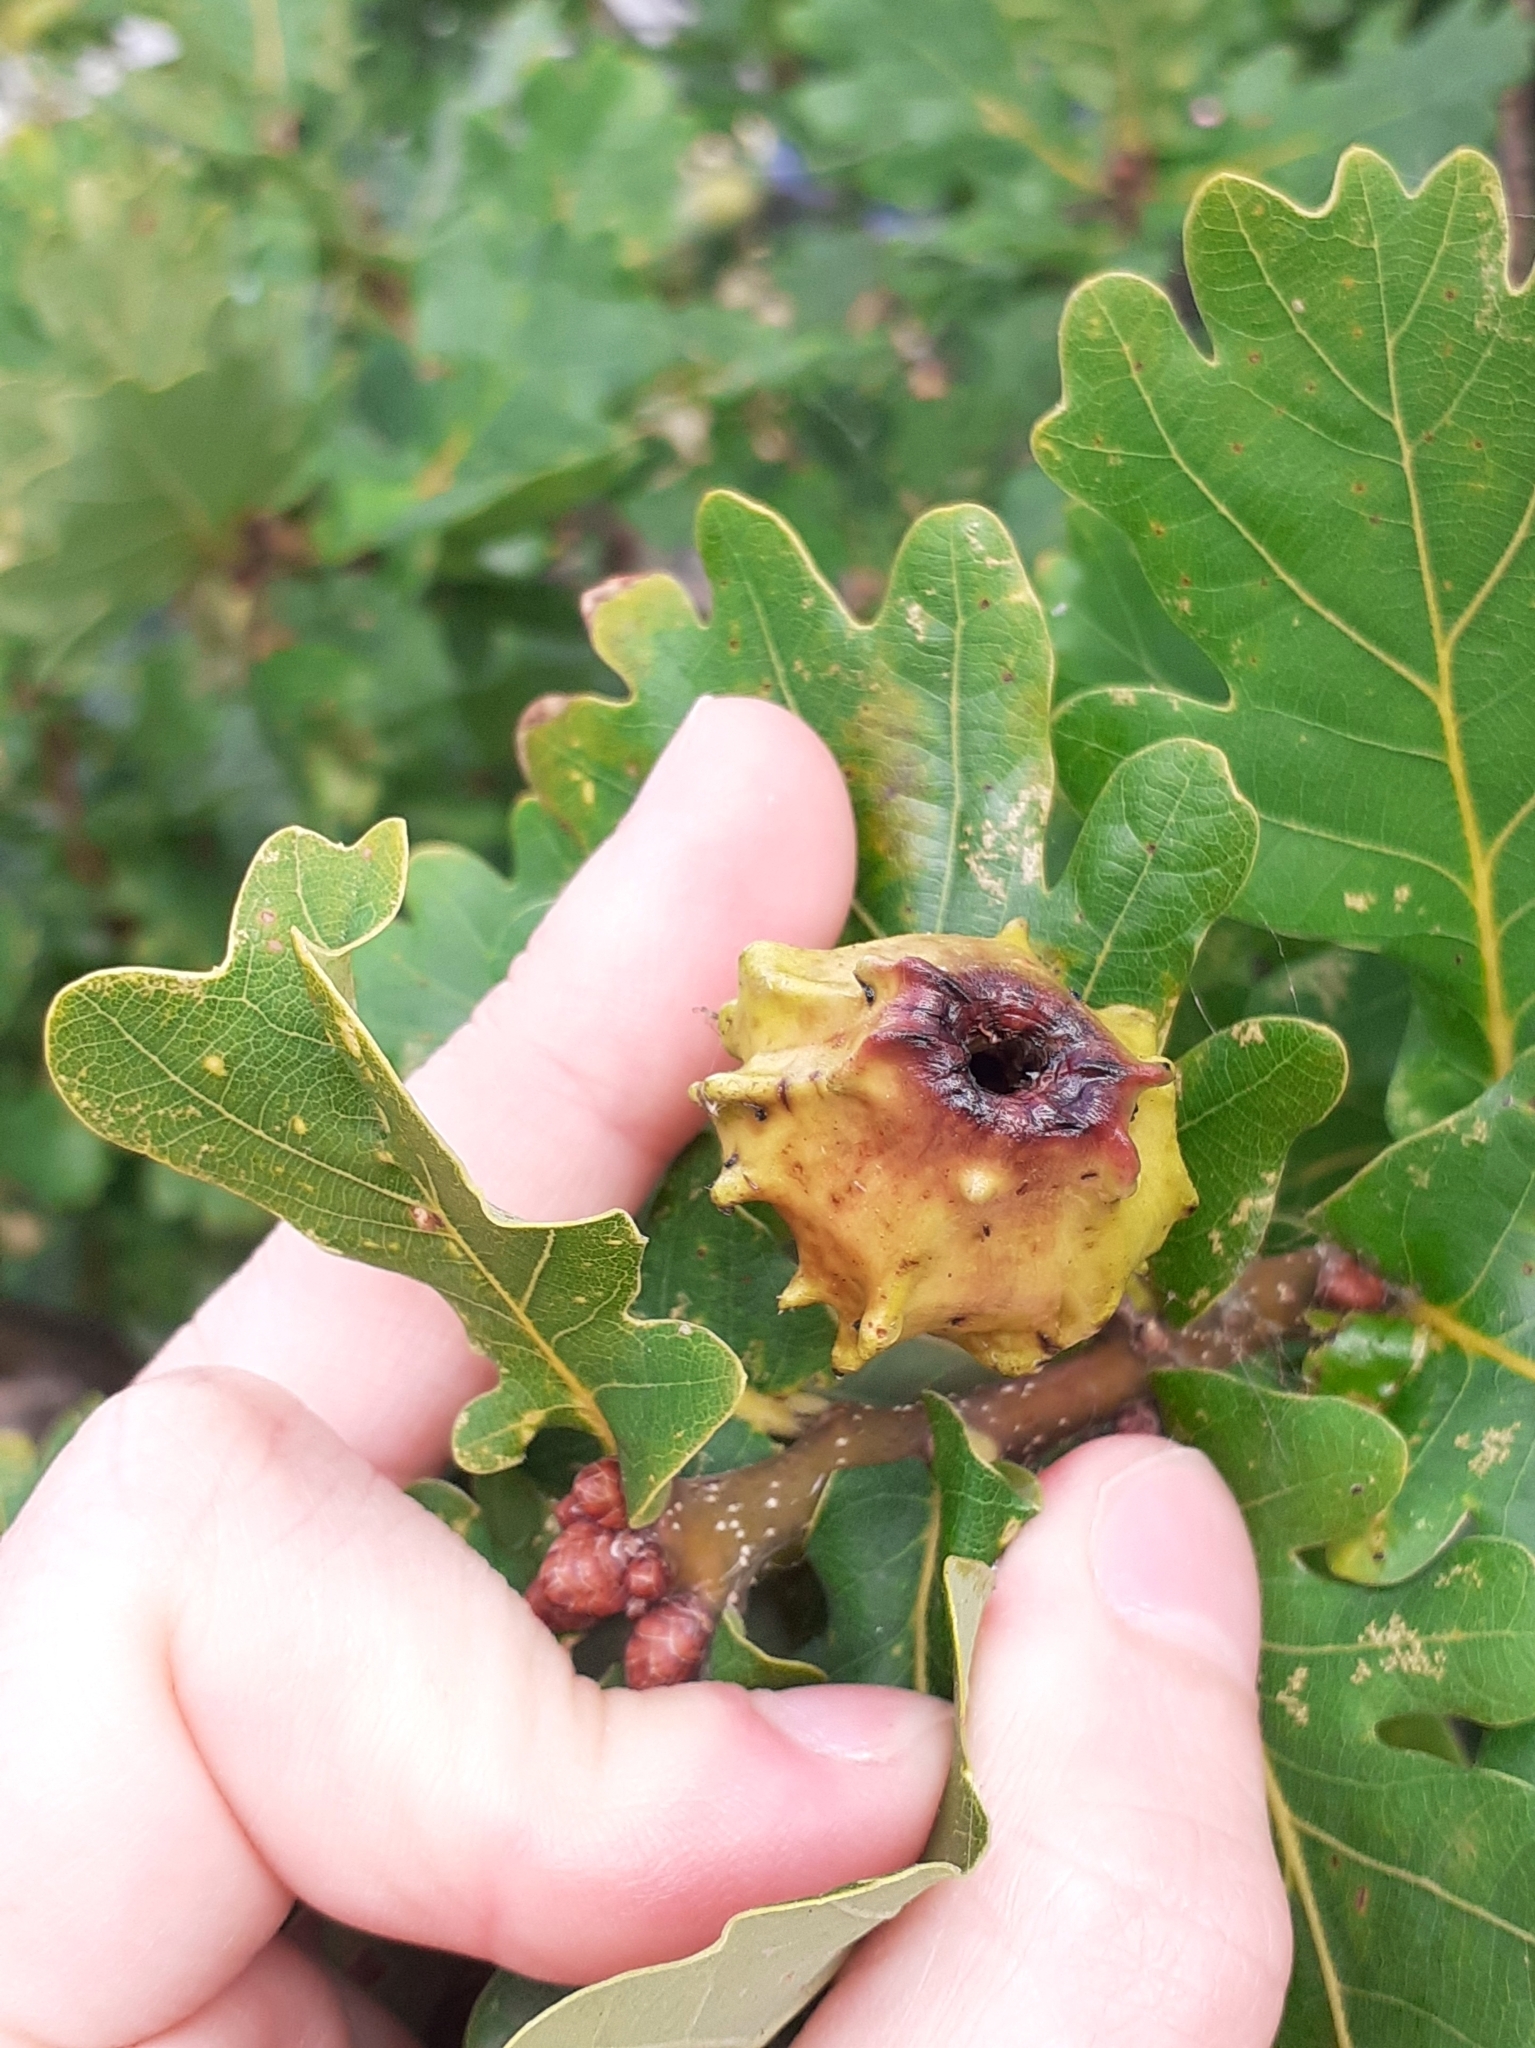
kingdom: Animalia
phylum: Arthropoda
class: Insecta
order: Hymenoptera
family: Cynipidae
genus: Andricus
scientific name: Andricus quercuscalicis
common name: Knopper gall
